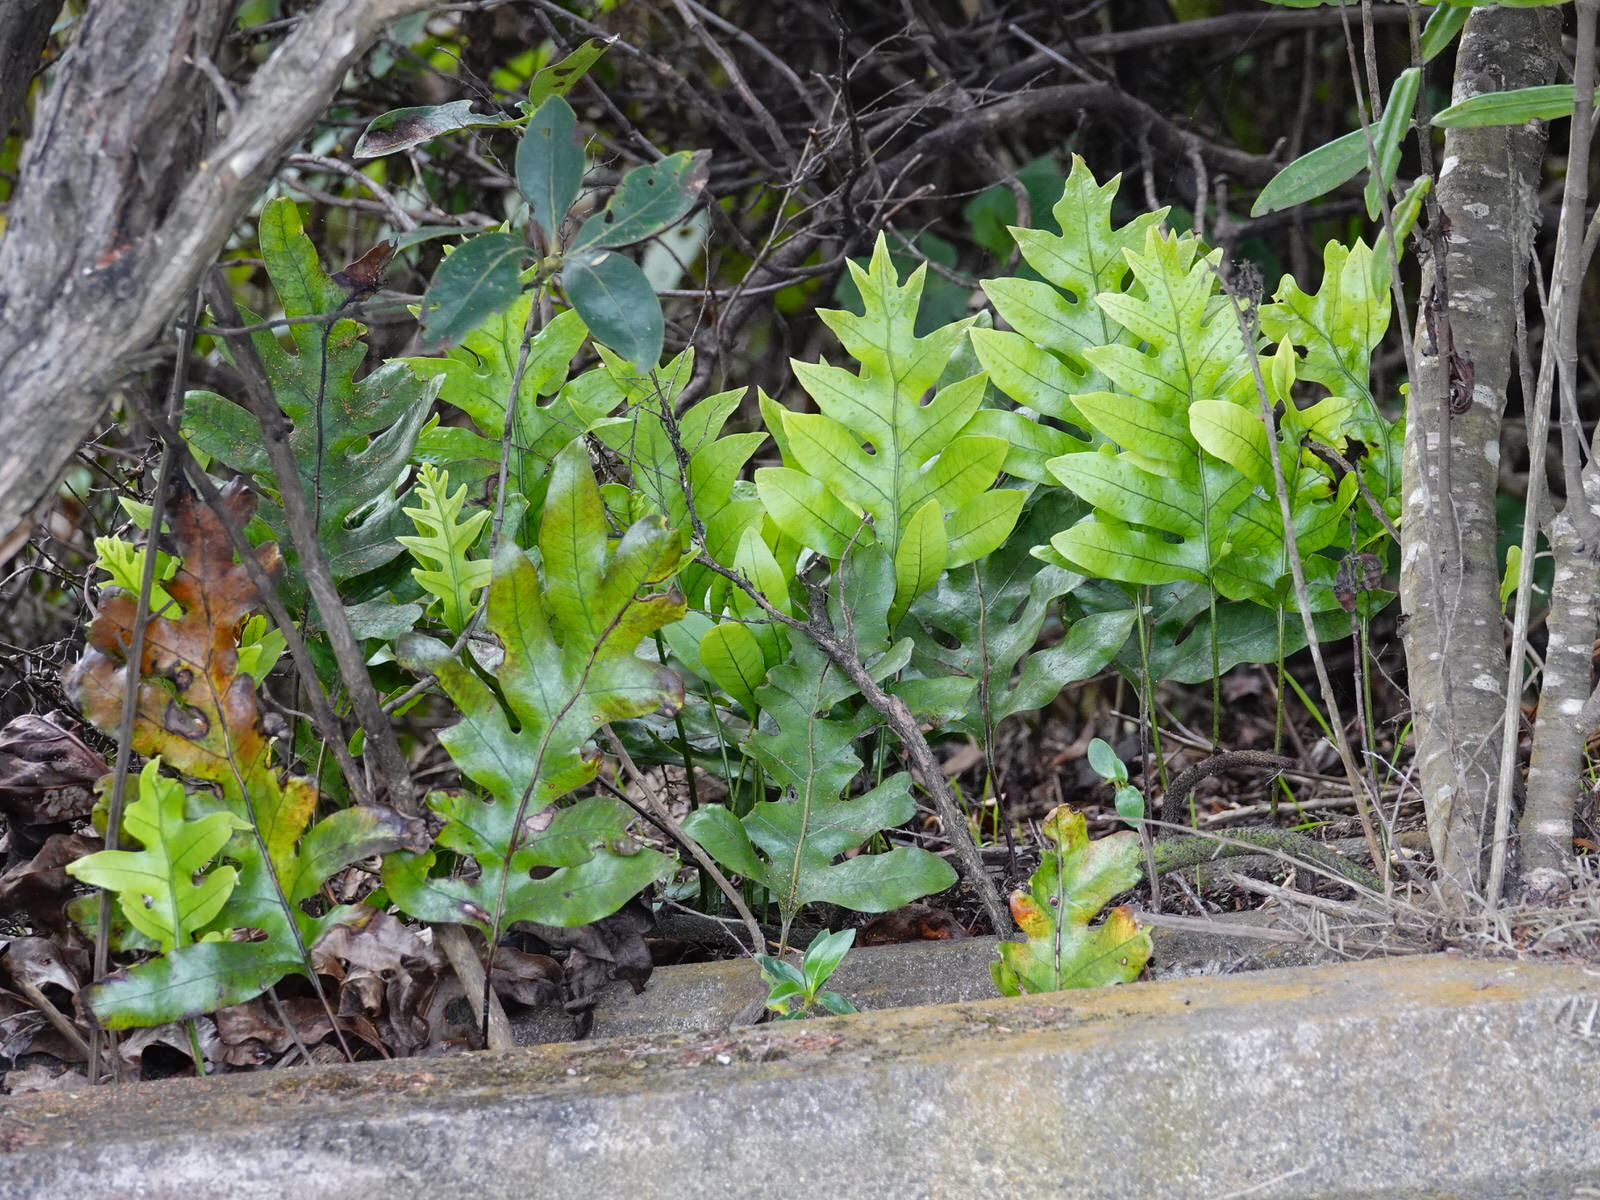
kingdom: Plantae
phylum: Tracheophyta
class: Polypodiopsida
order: Polypodiales
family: Polypodiaceae
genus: Lecanopteris
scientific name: Lecanopteris pustulata
